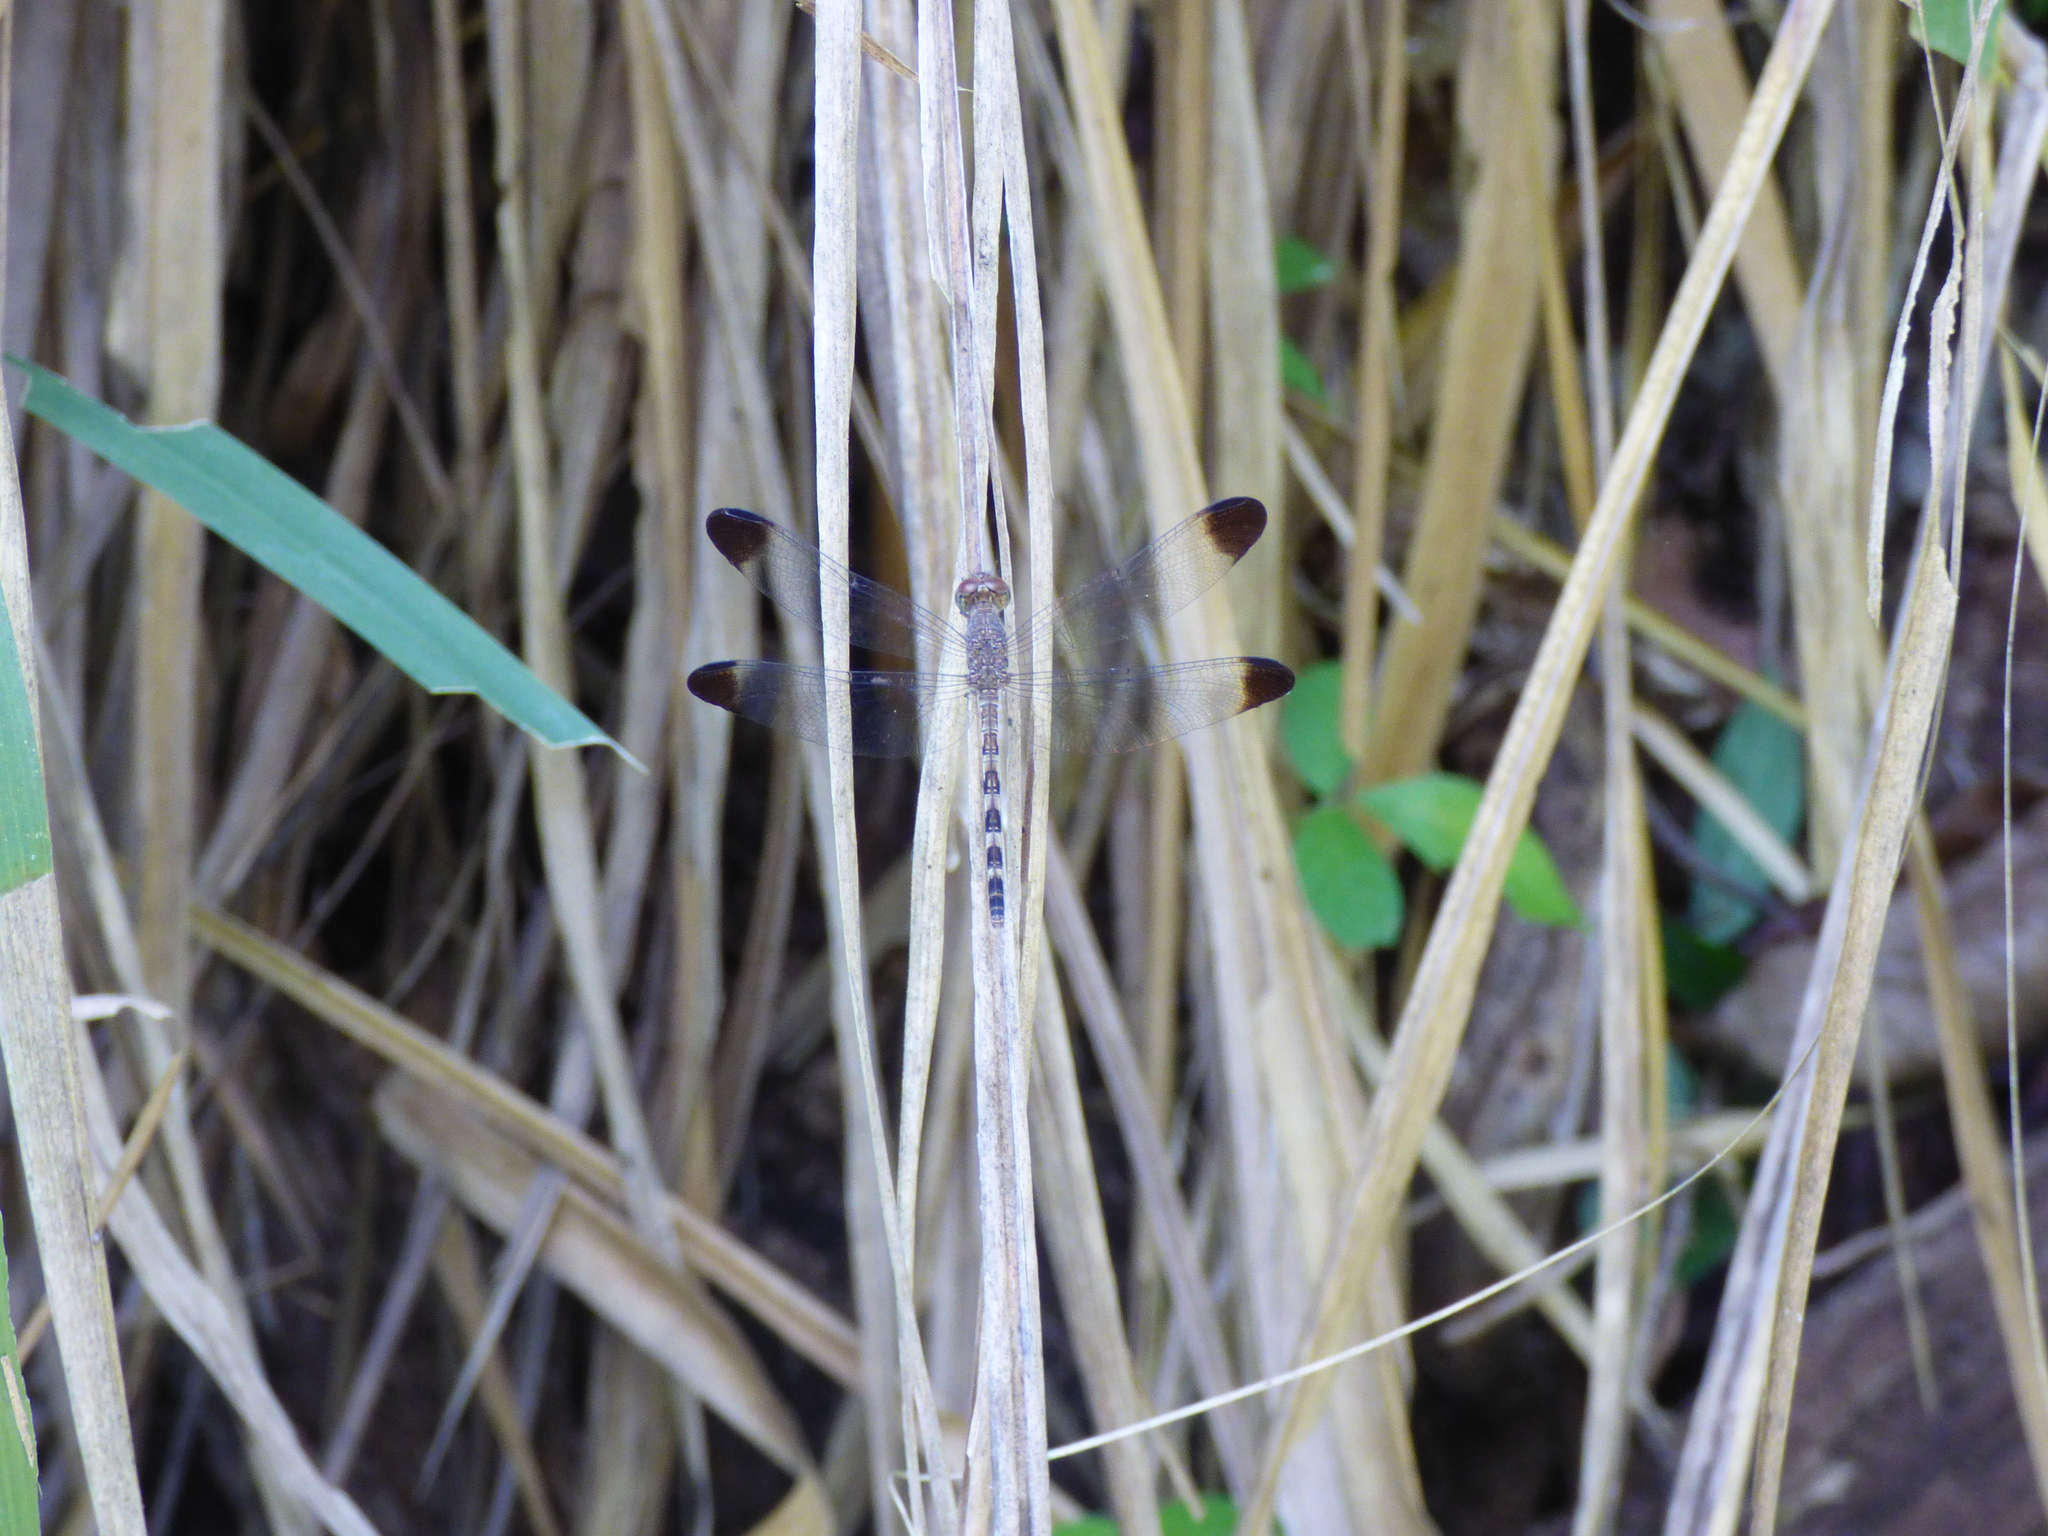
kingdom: Animalia
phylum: Arthropoda
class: Insecta
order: Odonata
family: Libellulidae
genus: Uracis
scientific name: Uracis imbuta
